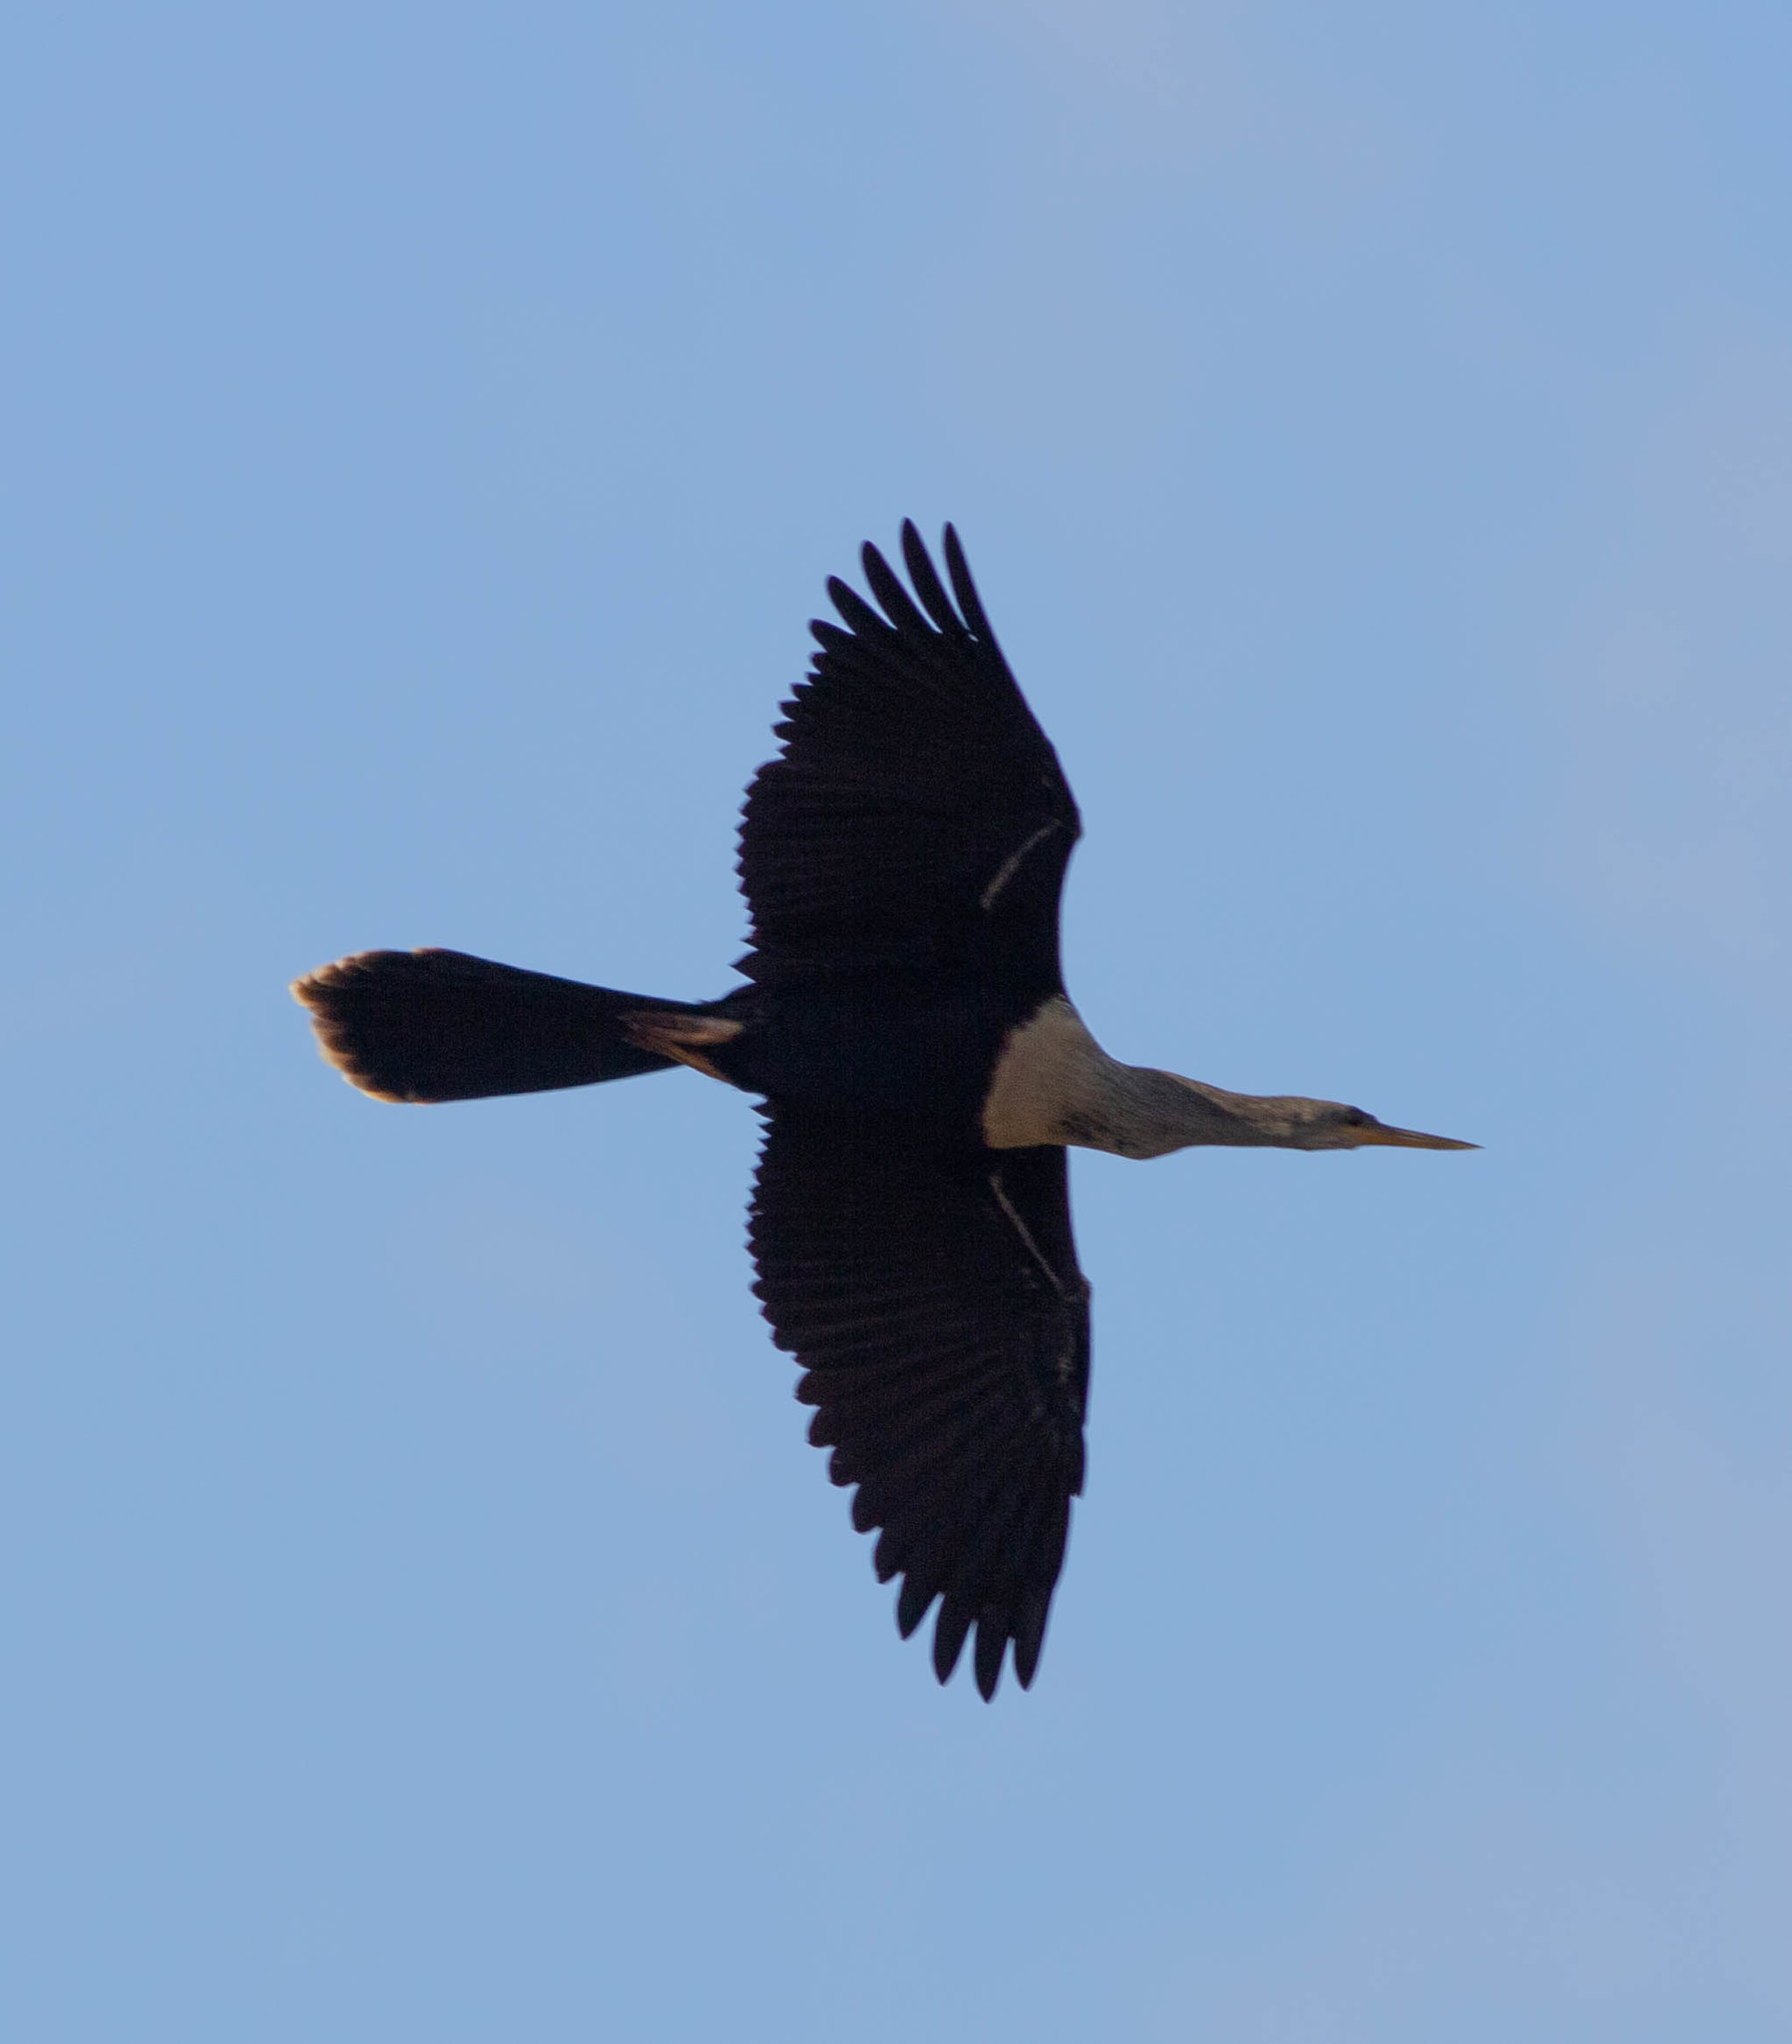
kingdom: Animalia
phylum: Chordata
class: Aves
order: Suliformes
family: Anhingidae
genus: Anhinga
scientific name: Anhinga anhinga
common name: Anhinga
